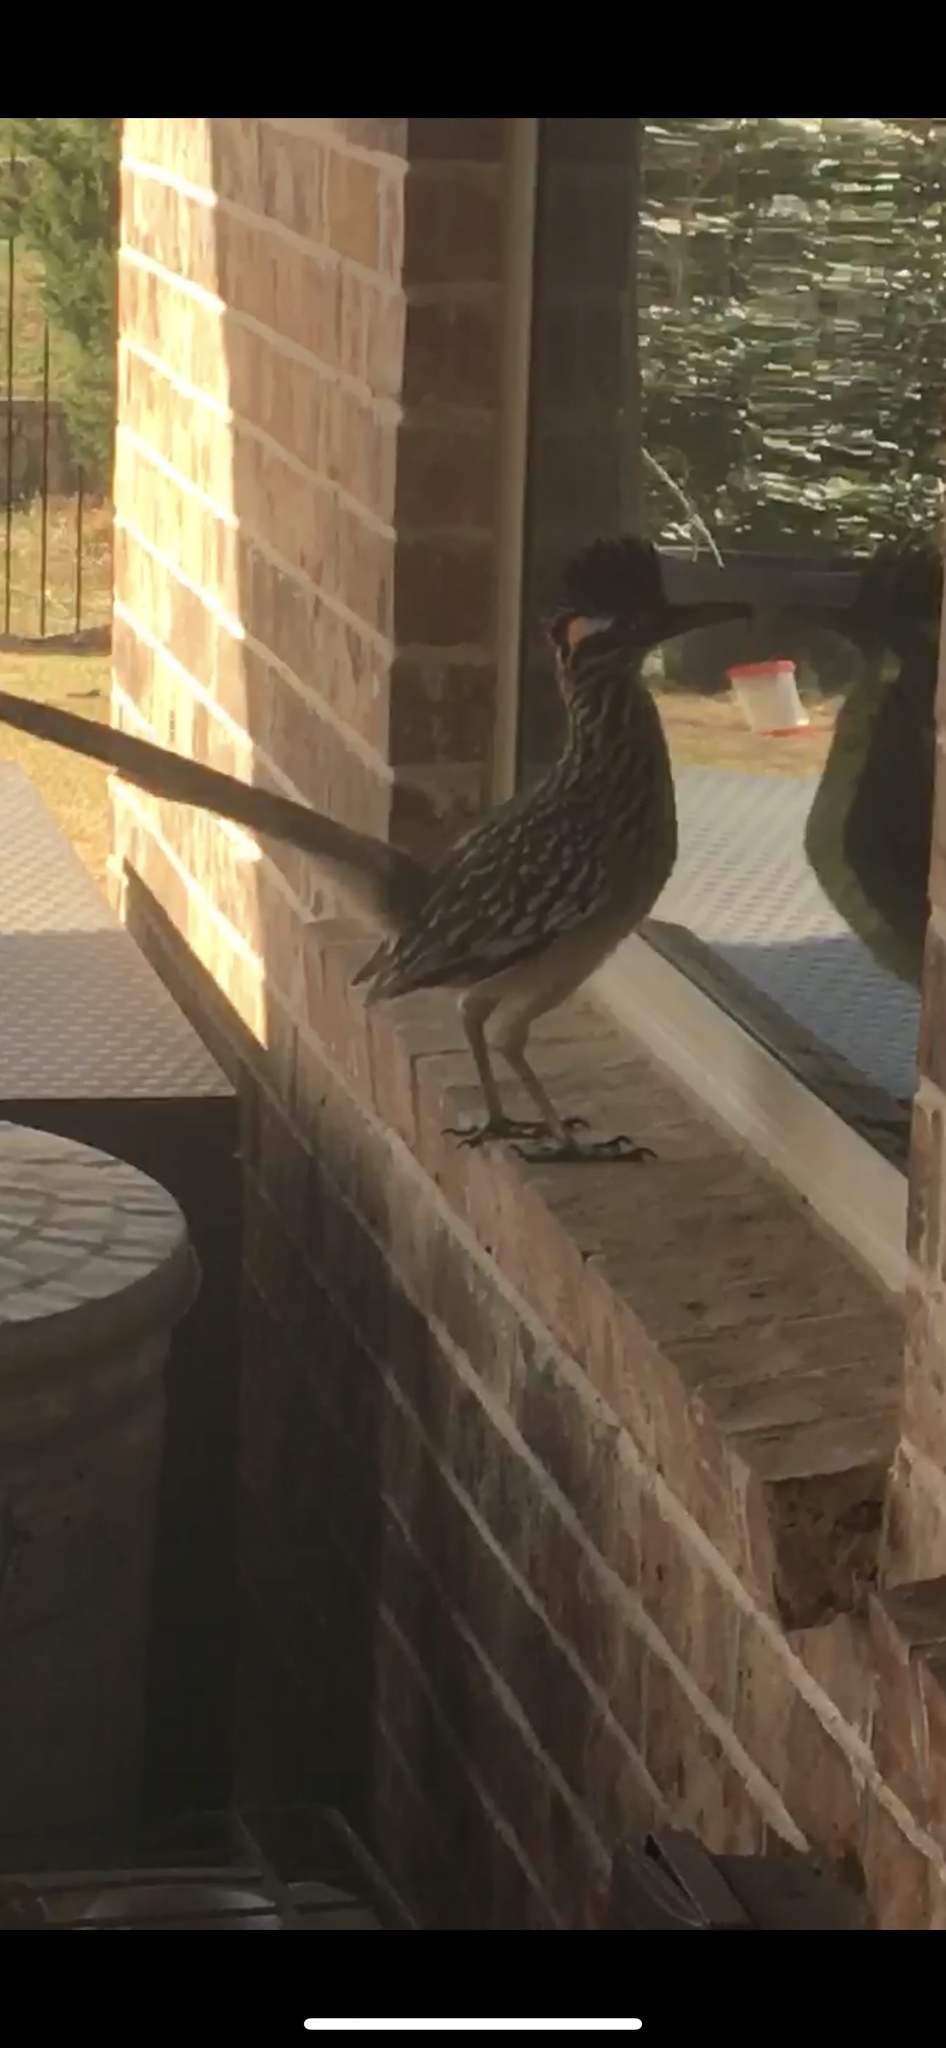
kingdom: Animalia
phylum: Chordata
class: Aves
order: Cuculiformes
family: Cuculidae
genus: Geococcyx
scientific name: Geococcyx californianus
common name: Greater roadrunner
